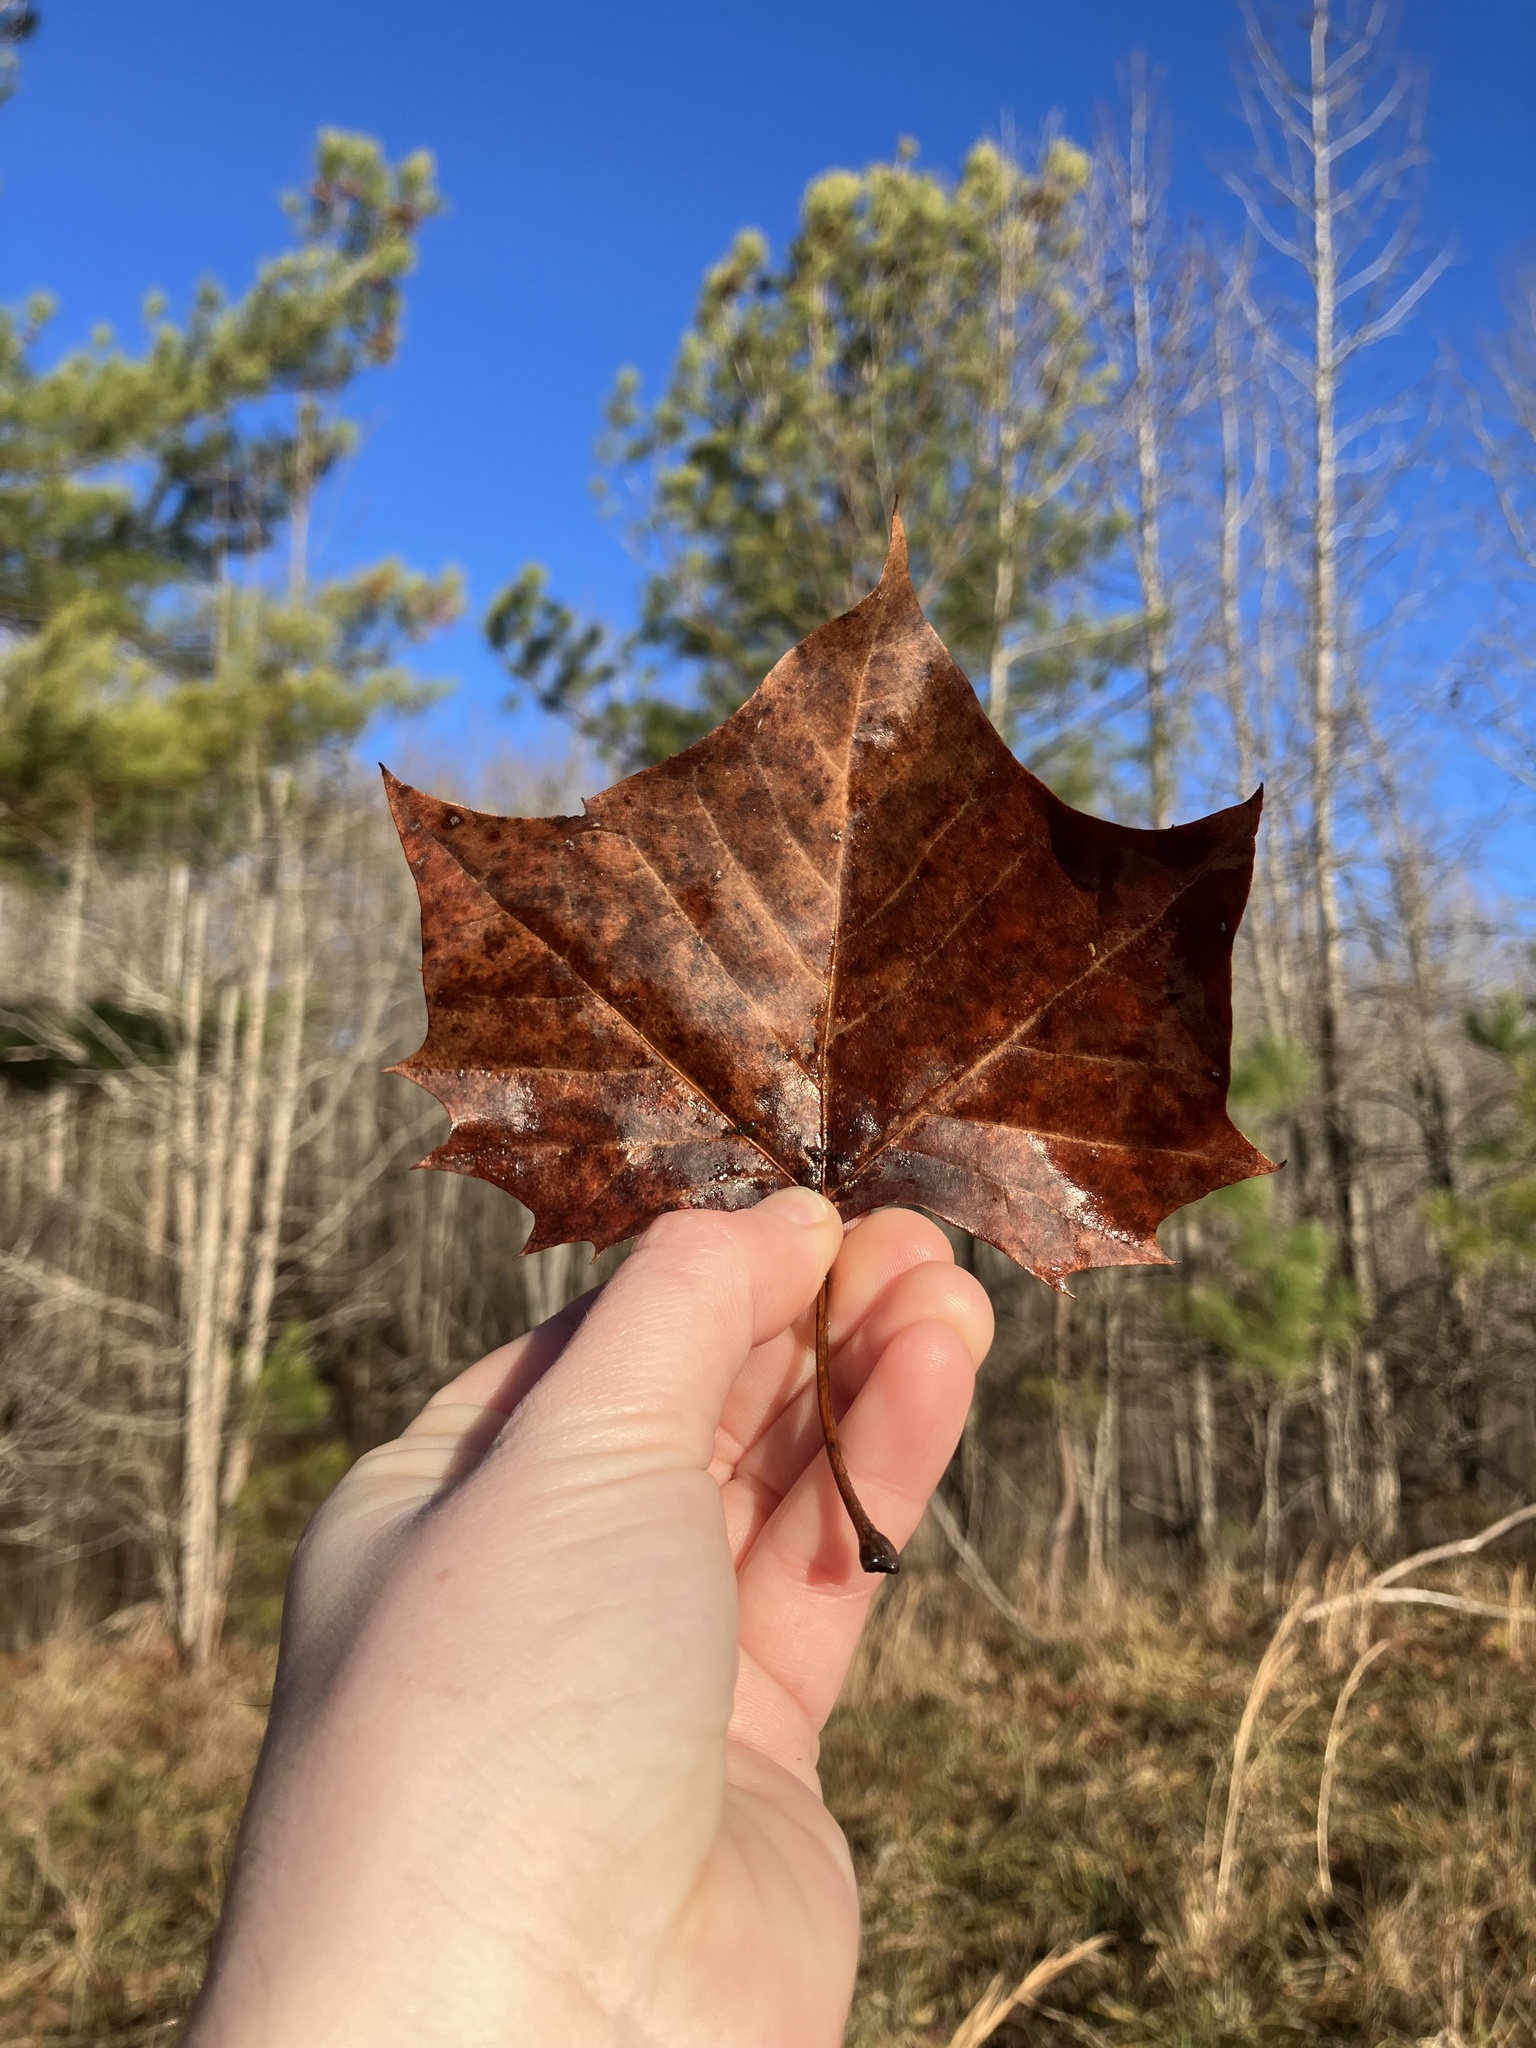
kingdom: Plantae
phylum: Tracheophyta
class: Magnoliopsida
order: Proteales
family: Platanaceae
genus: Platanus
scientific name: Platanus occidentalis
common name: American sycamore
